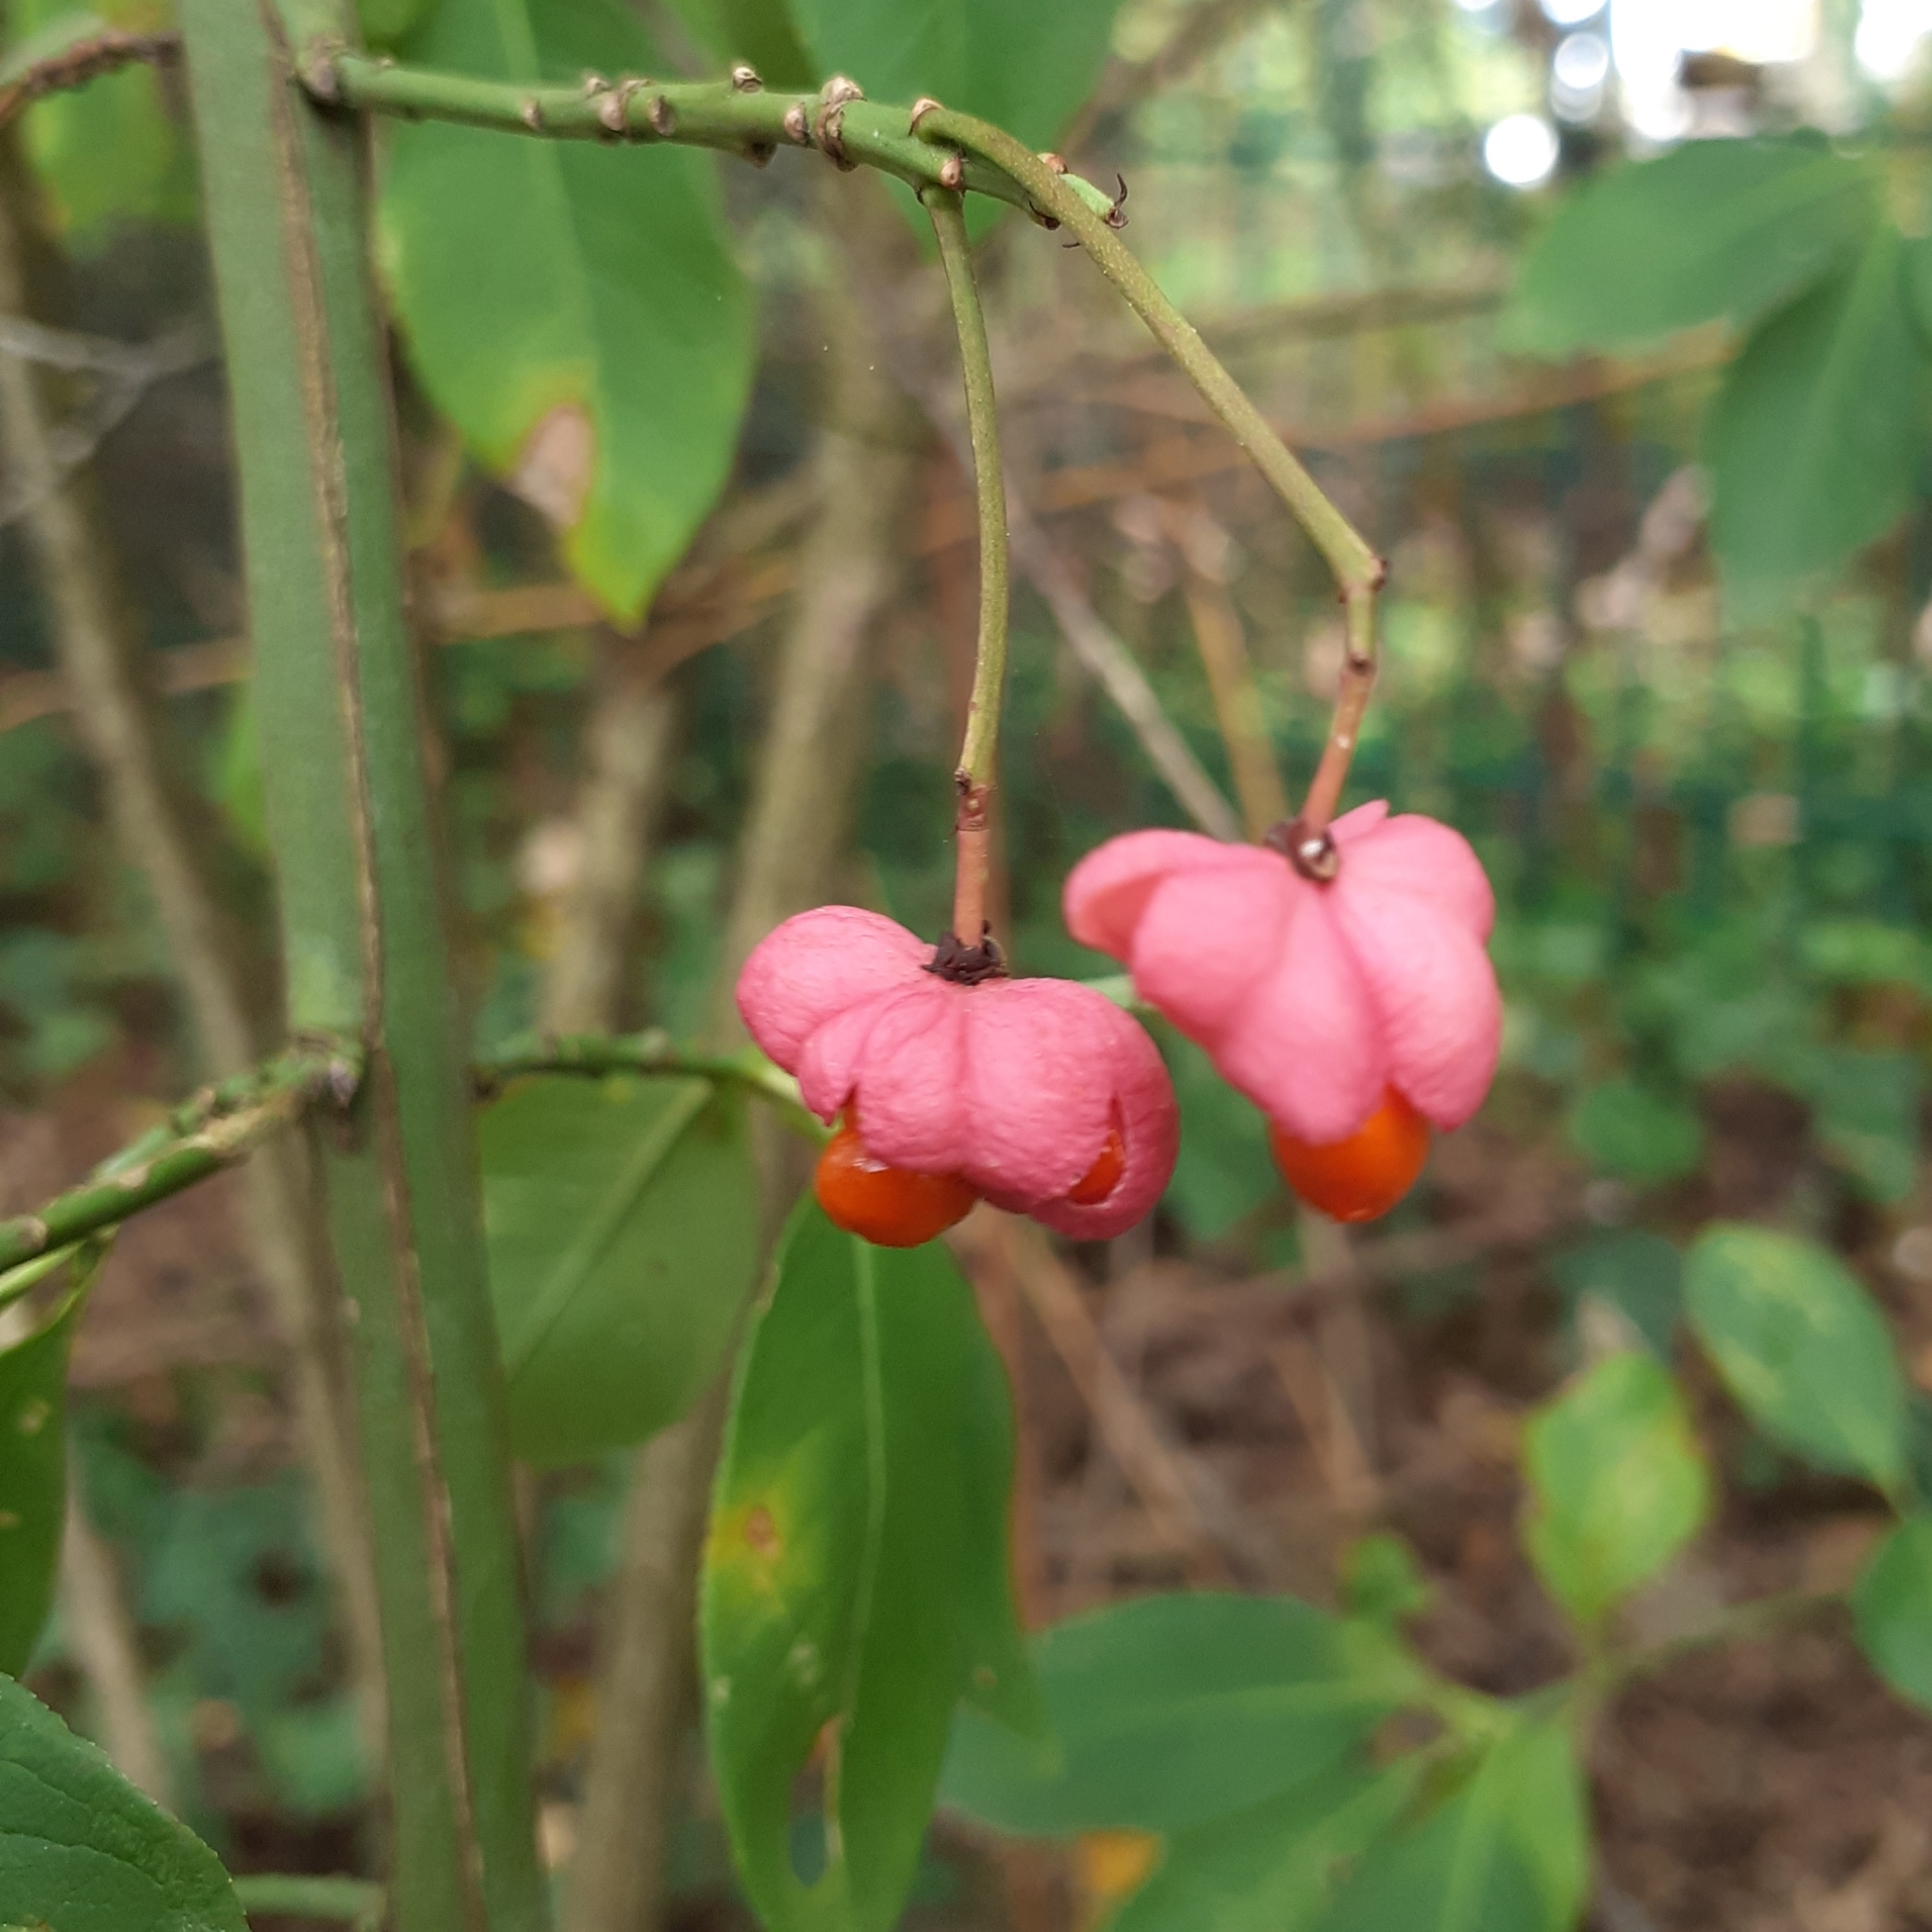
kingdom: Plantae
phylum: Tracheophyta
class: Magnoliopsida
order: Celastrales
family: Celastraceae
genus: Euonymus
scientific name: Euonymus europaeus
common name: Spindle
